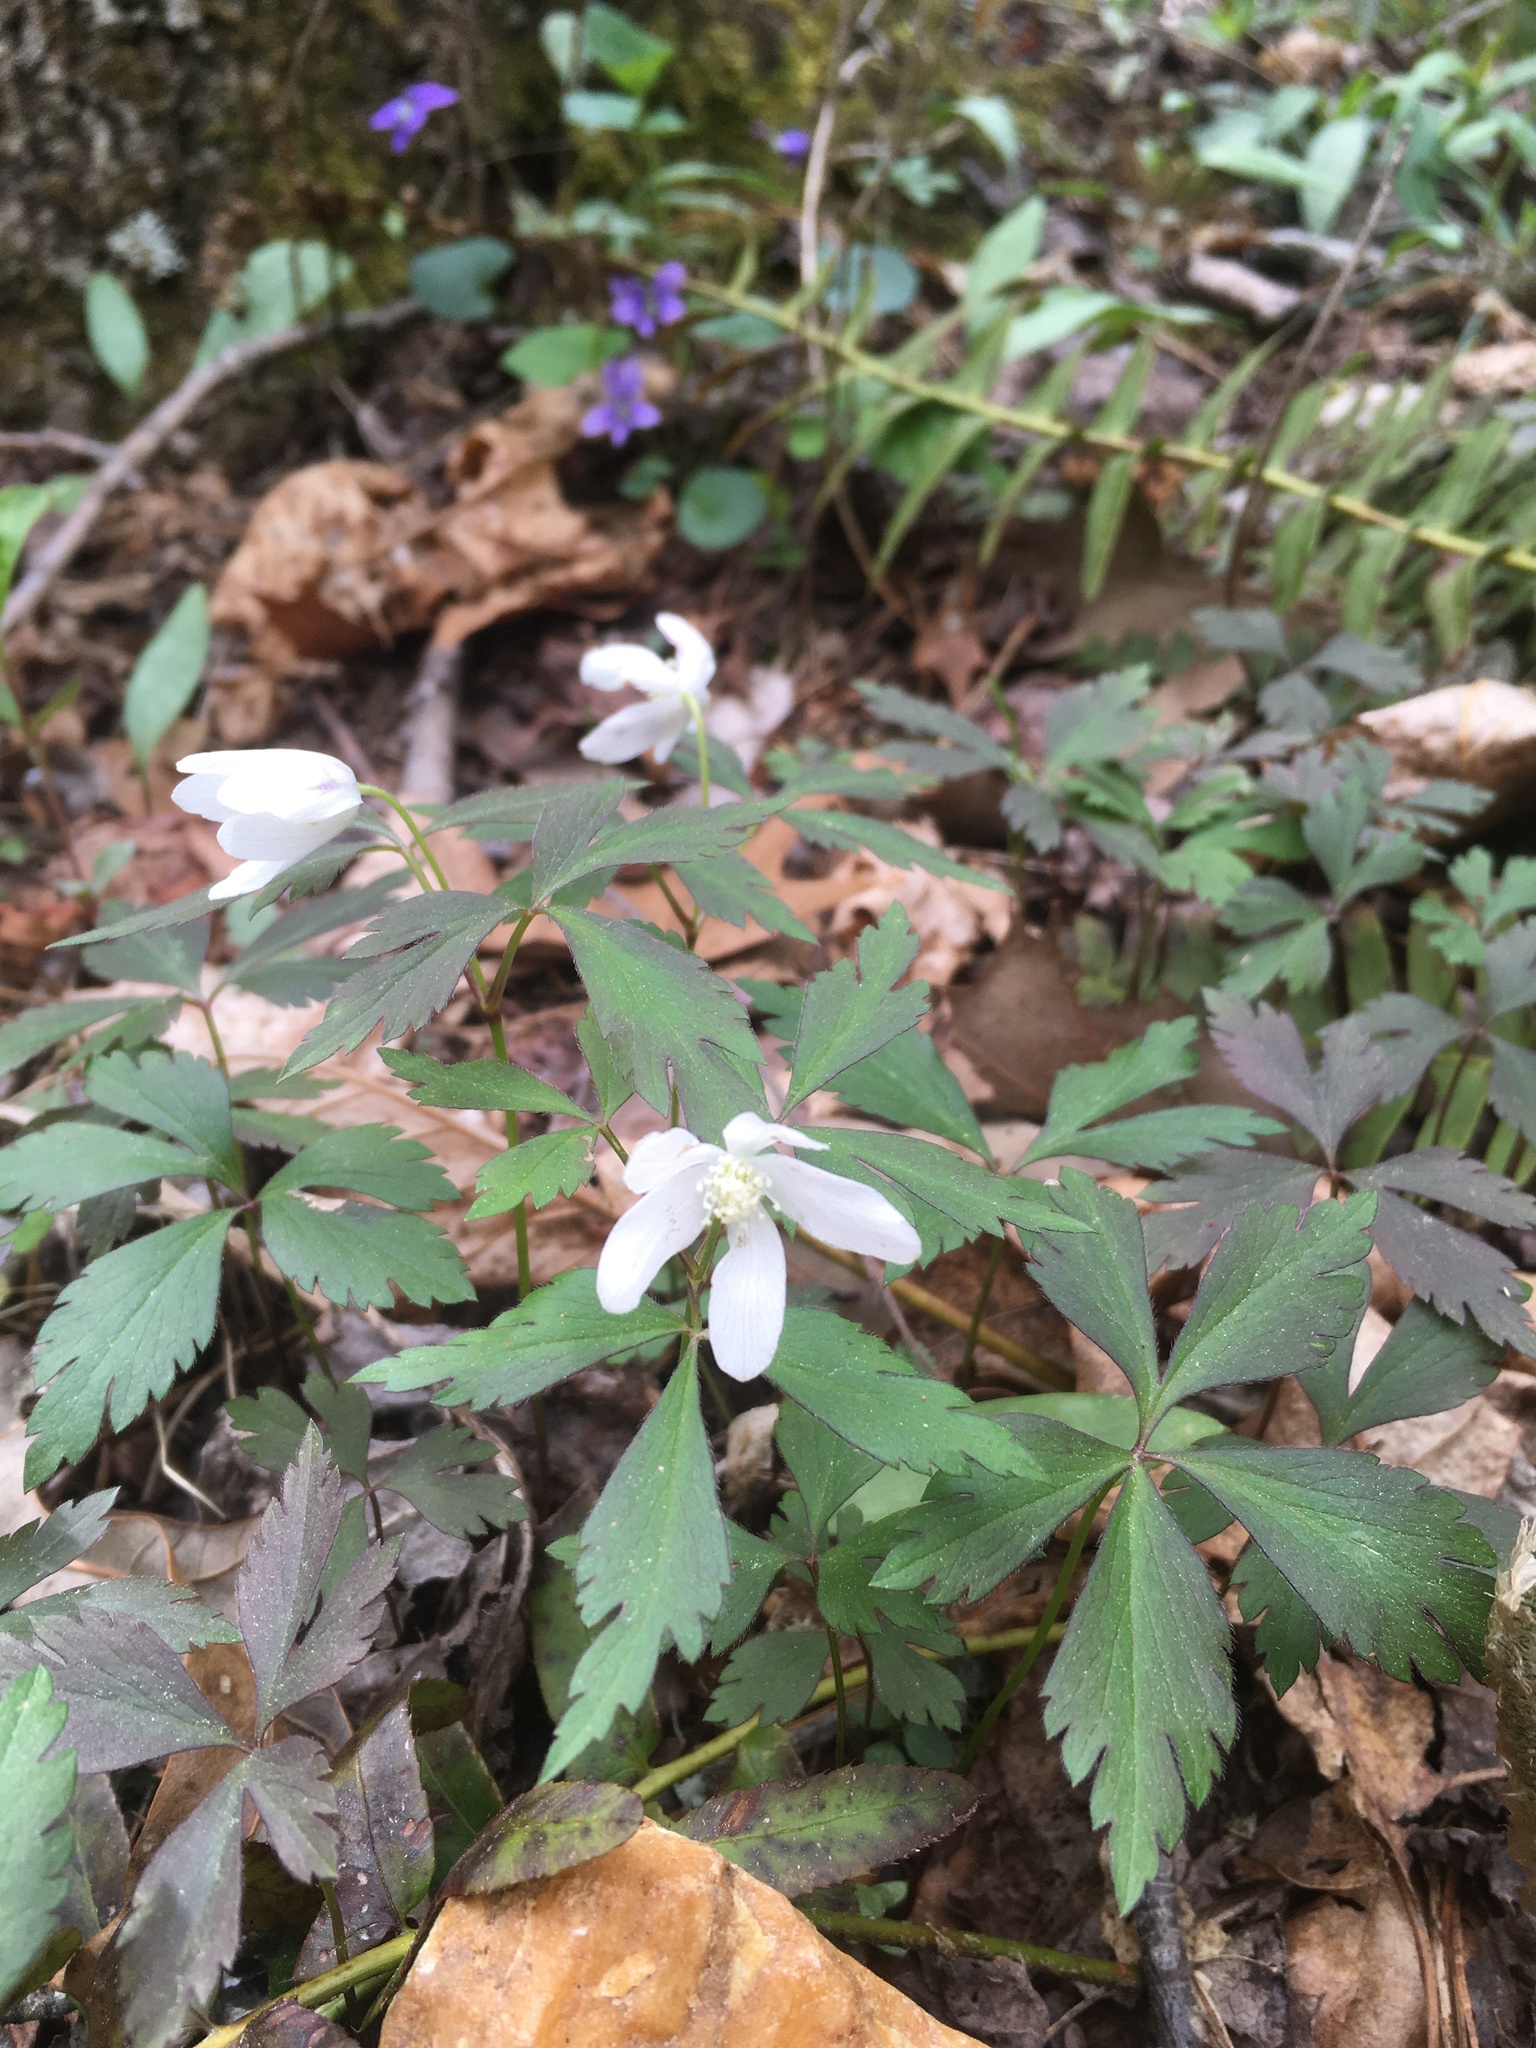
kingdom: Plantae
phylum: Tracheophyta
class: Magnoliopsida
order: Ranunculales
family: Ranunculaceae
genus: Anemone
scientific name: Anemone quinquefolia
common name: Wood anemone
